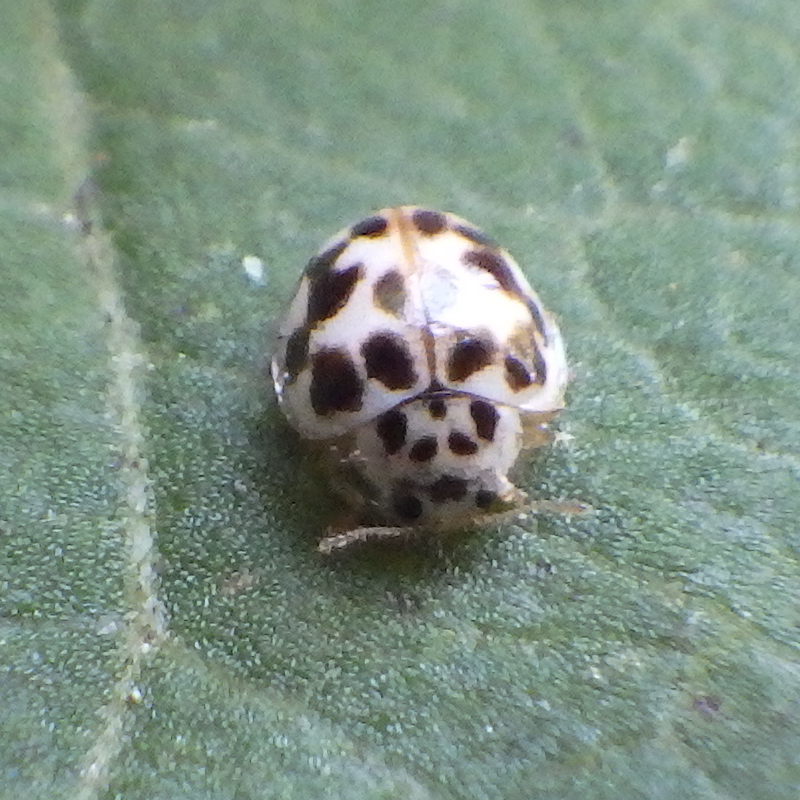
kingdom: Animalia
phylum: Arthropoda
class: Insecta
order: Coleoptera
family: Coccinellidae
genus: Psyllobora
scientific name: Psyllobora vigintimaculata
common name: Ladybird beetle
